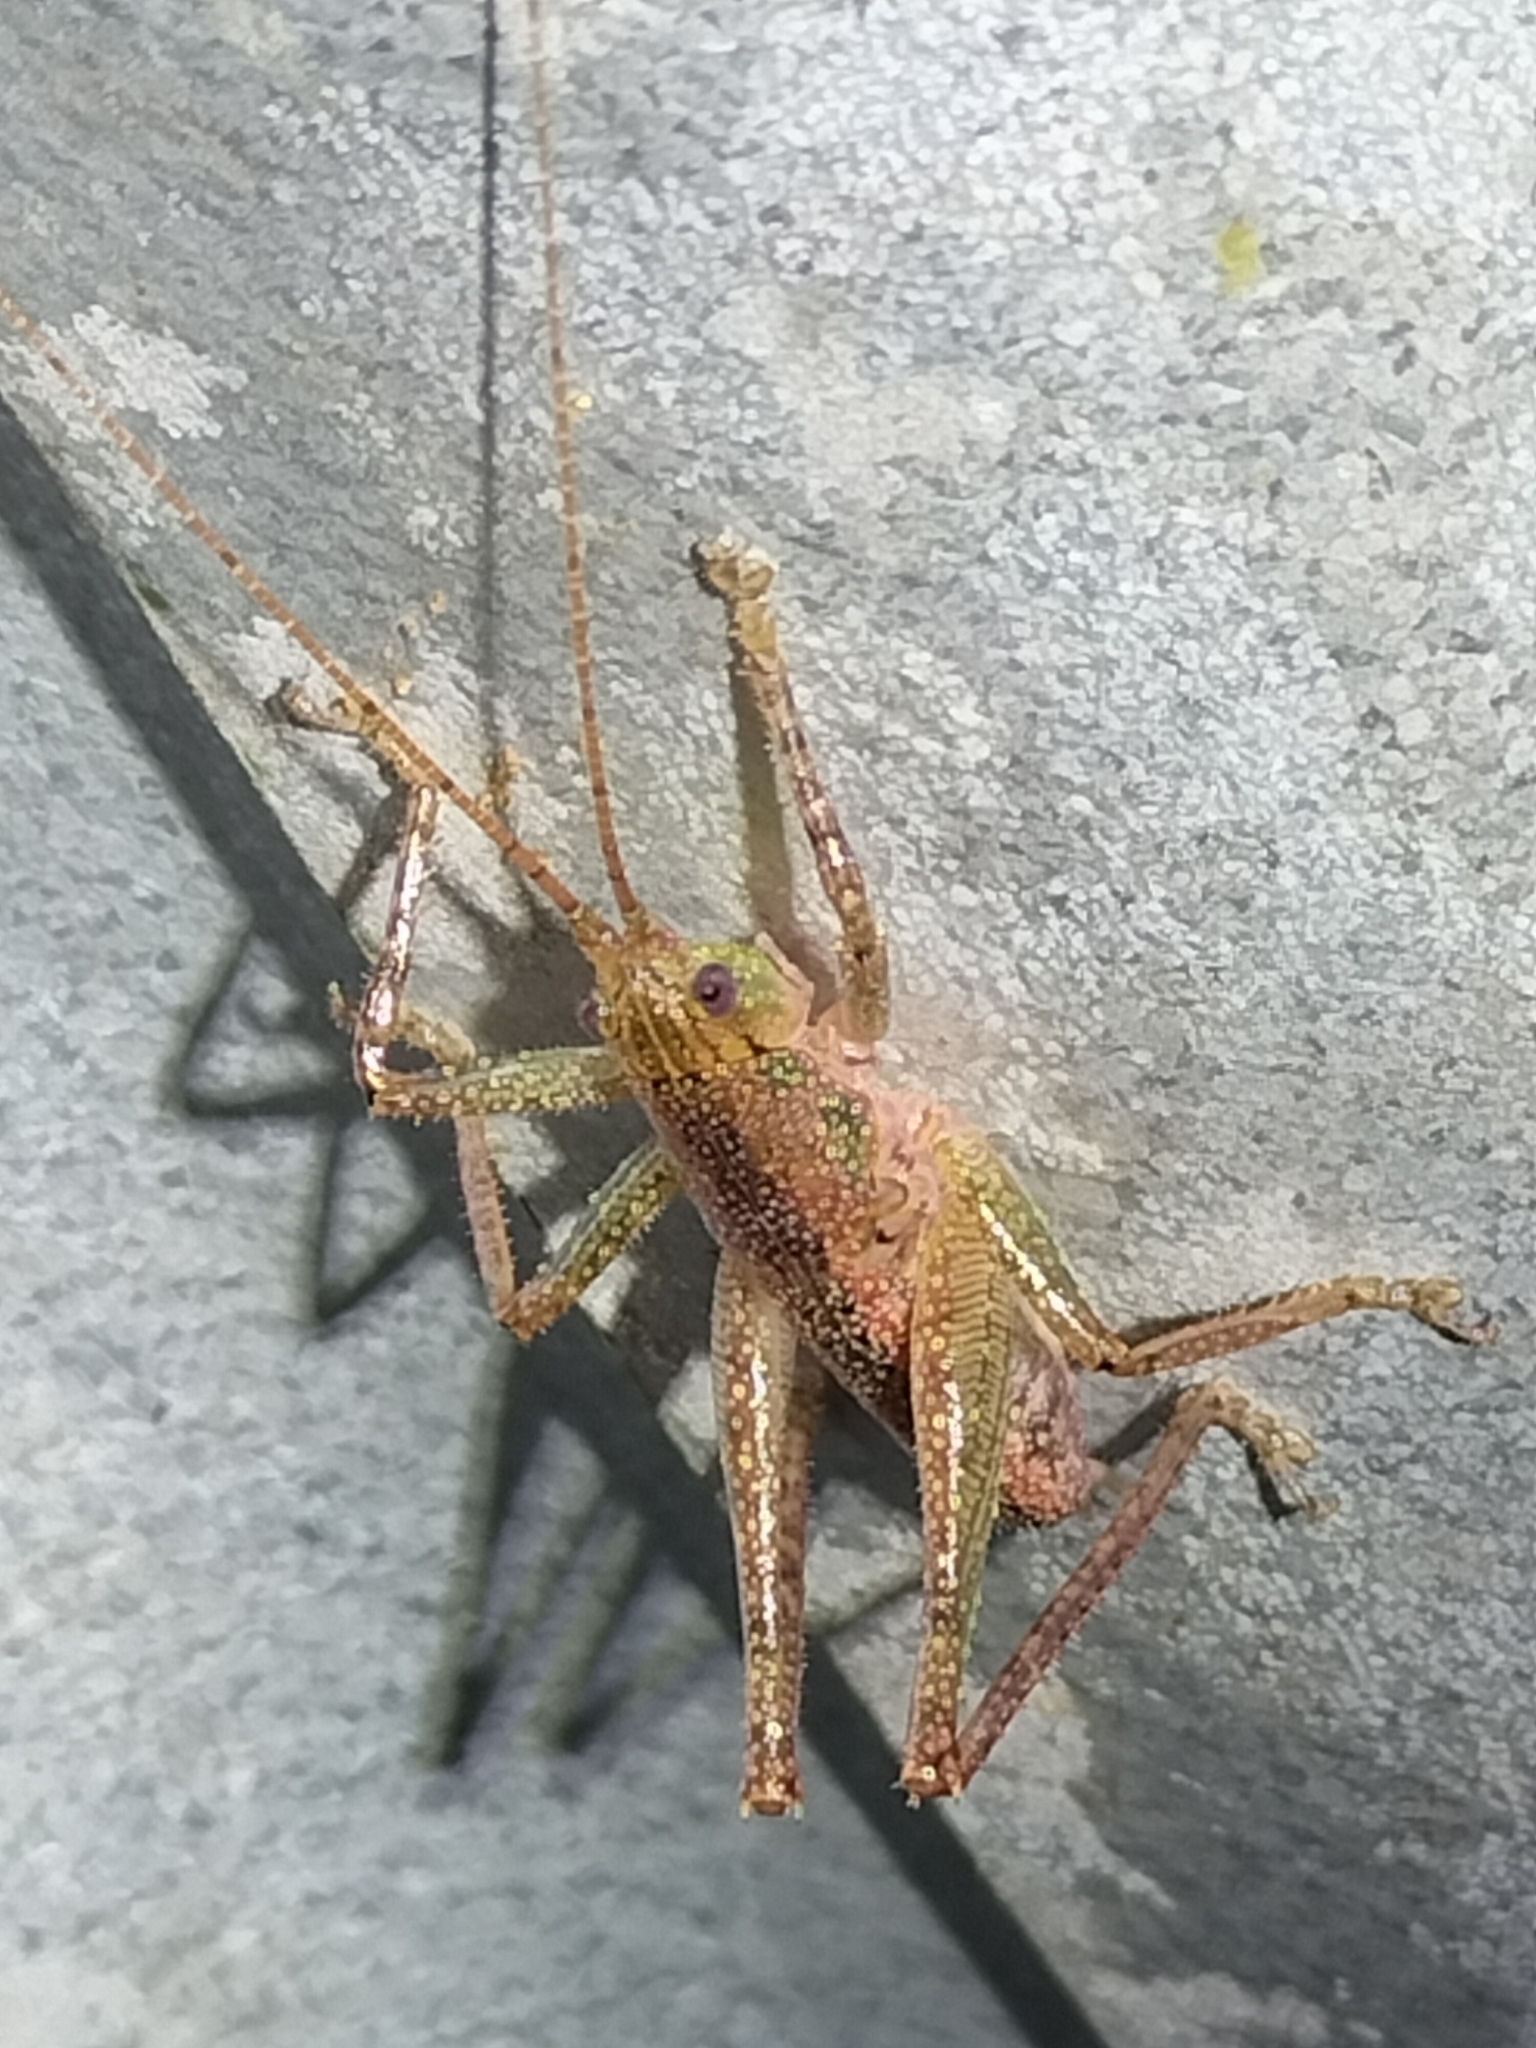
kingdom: Animalia
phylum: Arthropoda
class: Insecta
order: Orthoptera
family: Tettigoniidae
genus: Austrosalomona
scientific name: Austrosalomona destructor
